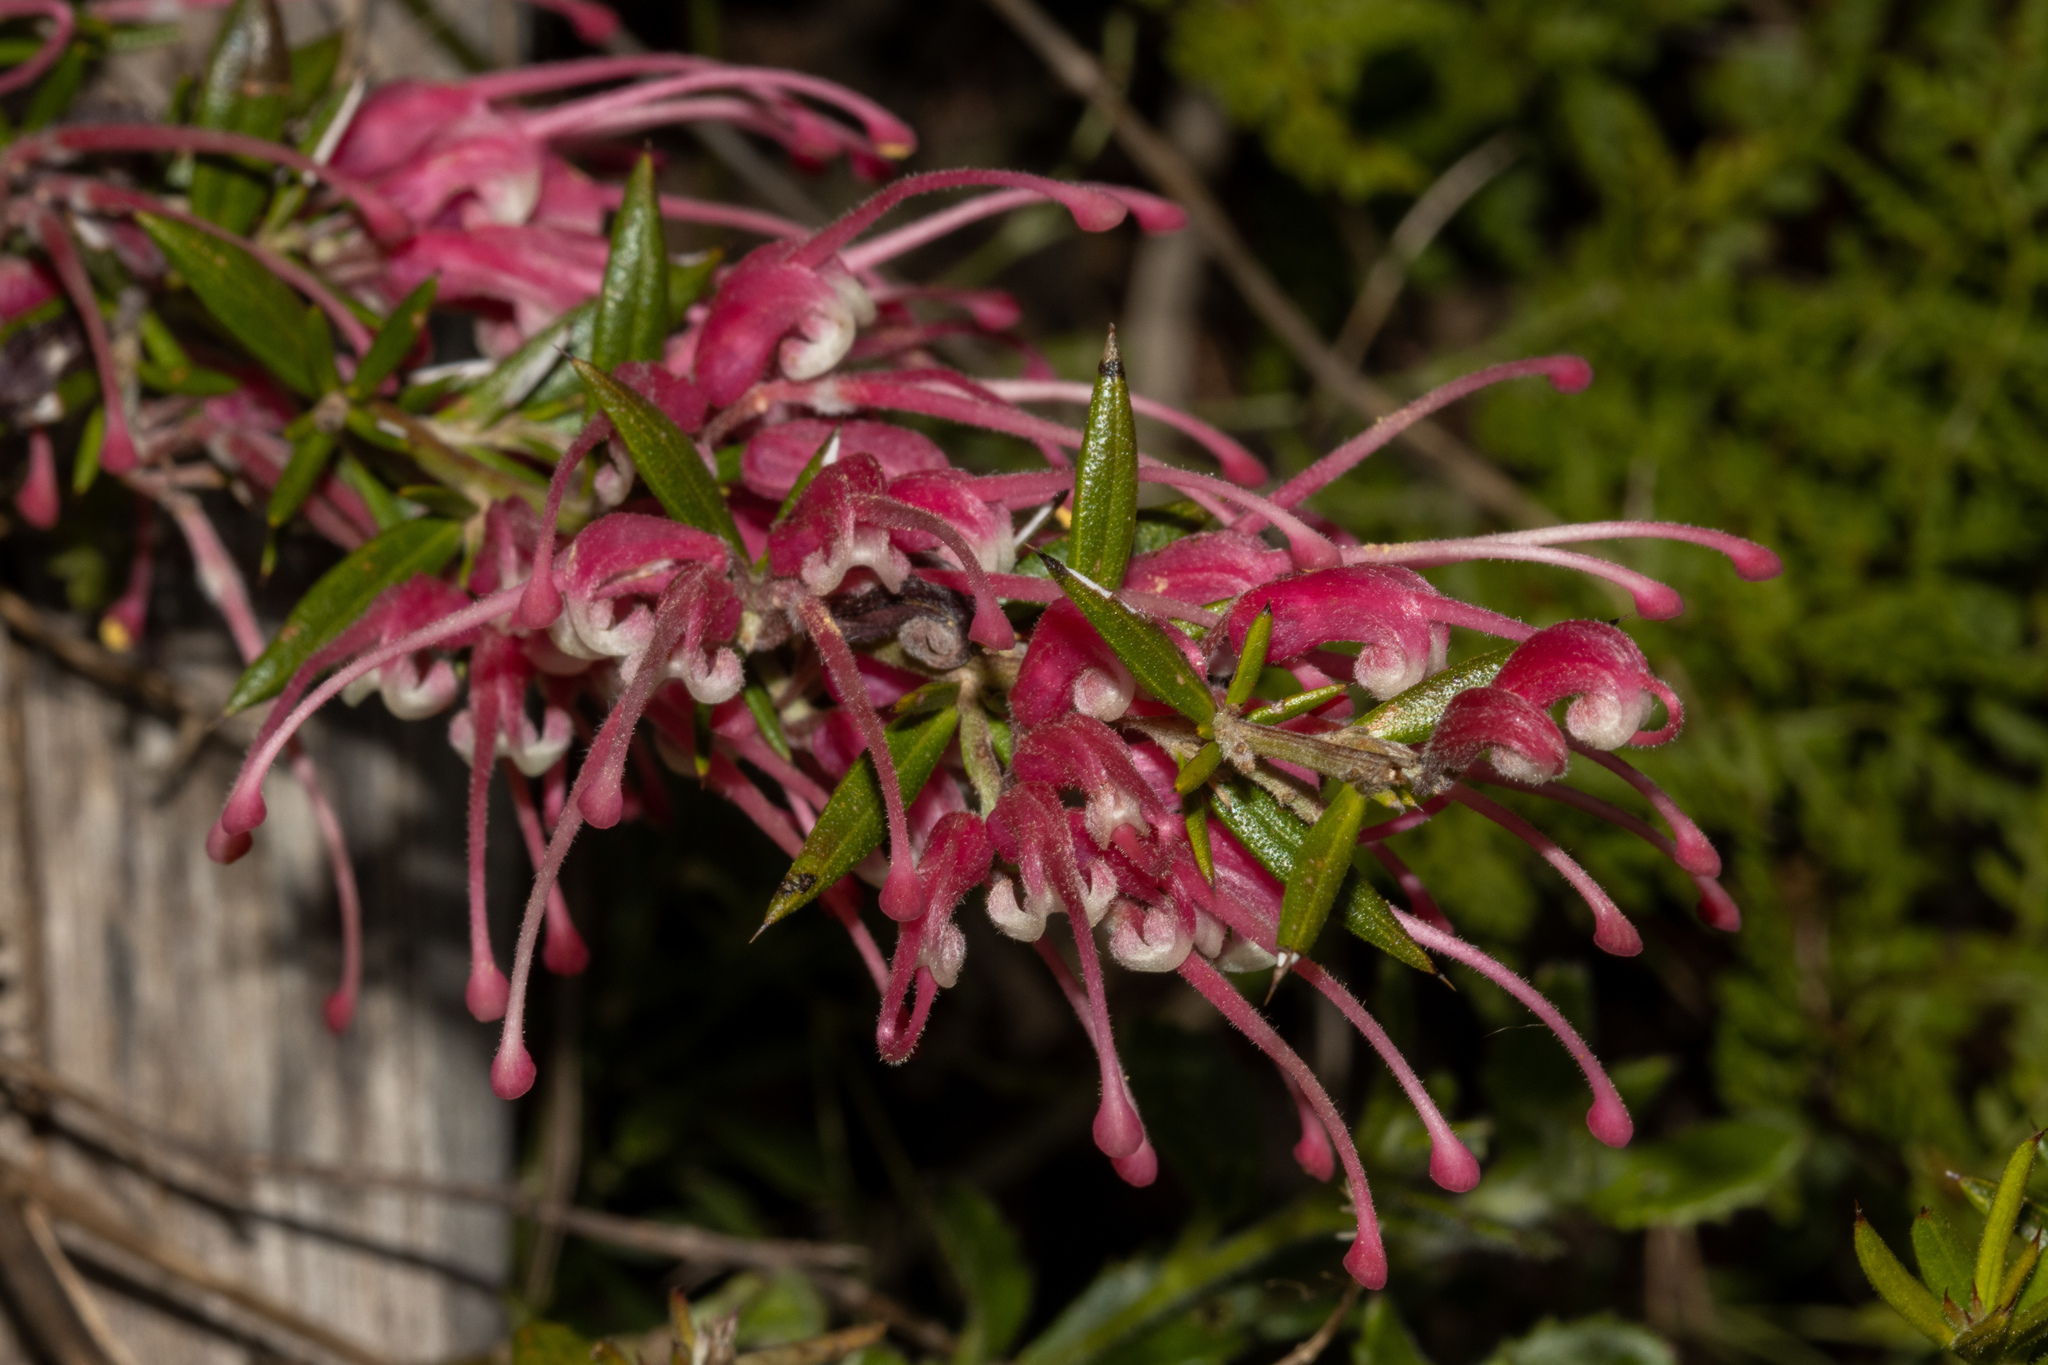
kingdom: Plantae
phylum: Tracheophyta
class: Magnoliopsida
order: Proteales
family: Proteaceae
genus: Grevillea
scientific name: Grevillea lavandulacea
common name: Lavender grevillea
